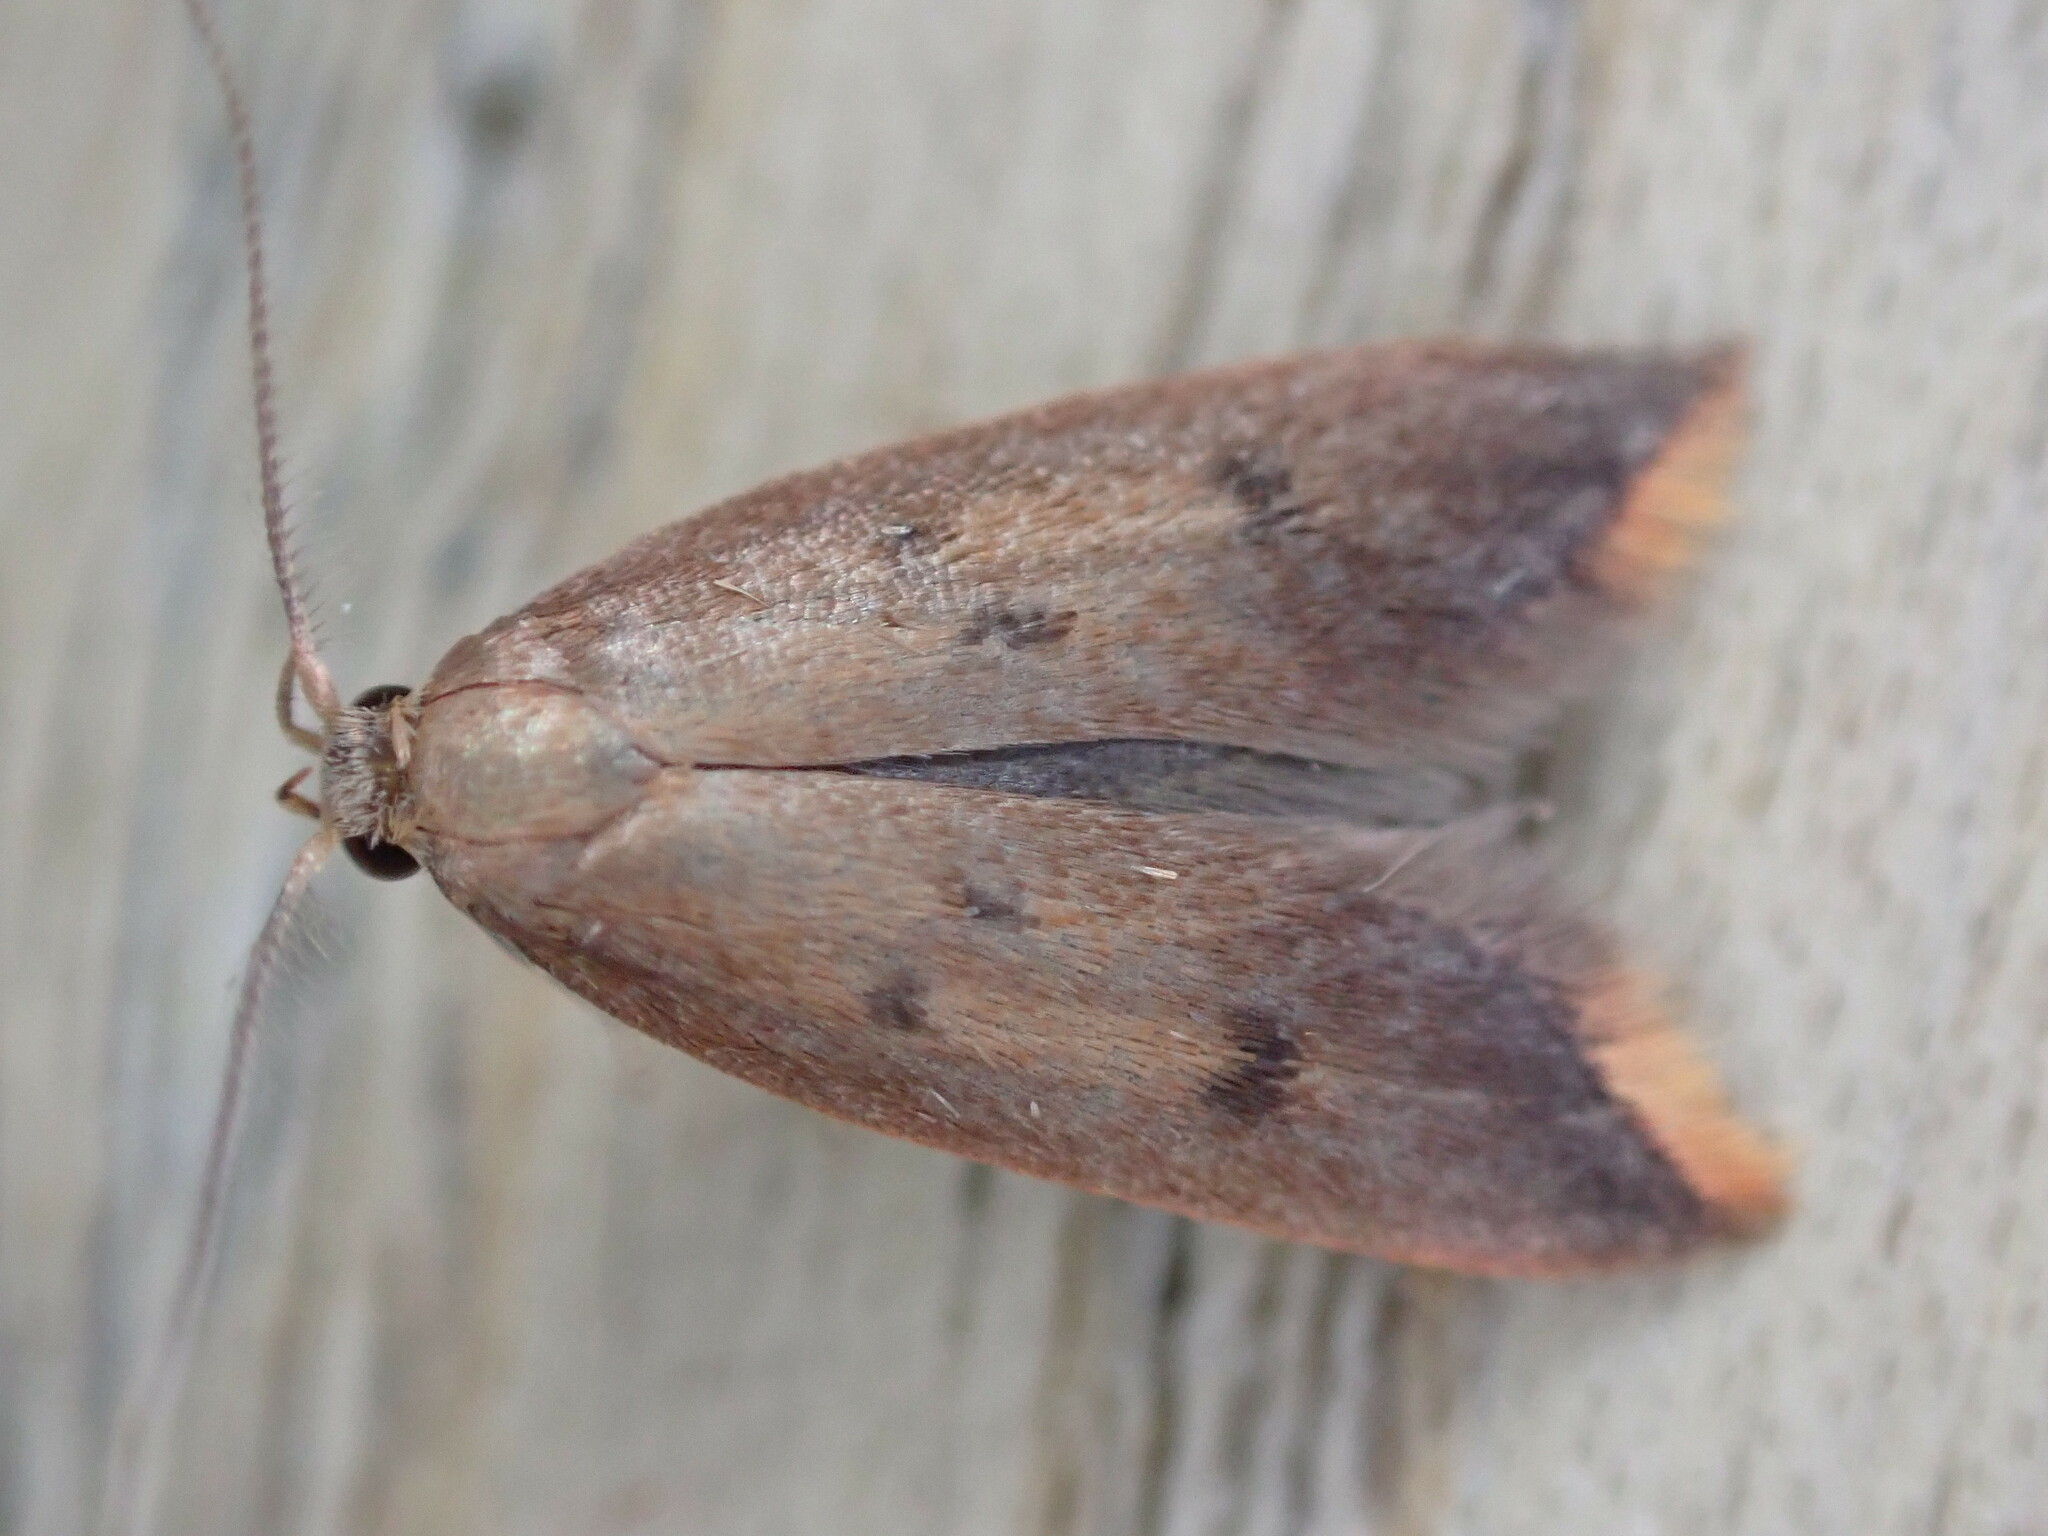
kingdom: Animalia
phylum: Arthropoda
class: Insecta
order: Lepidoptera
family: Oecophoridae
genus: Tachystola
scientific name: Tachystola acroxantha
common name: Ruddy streak
